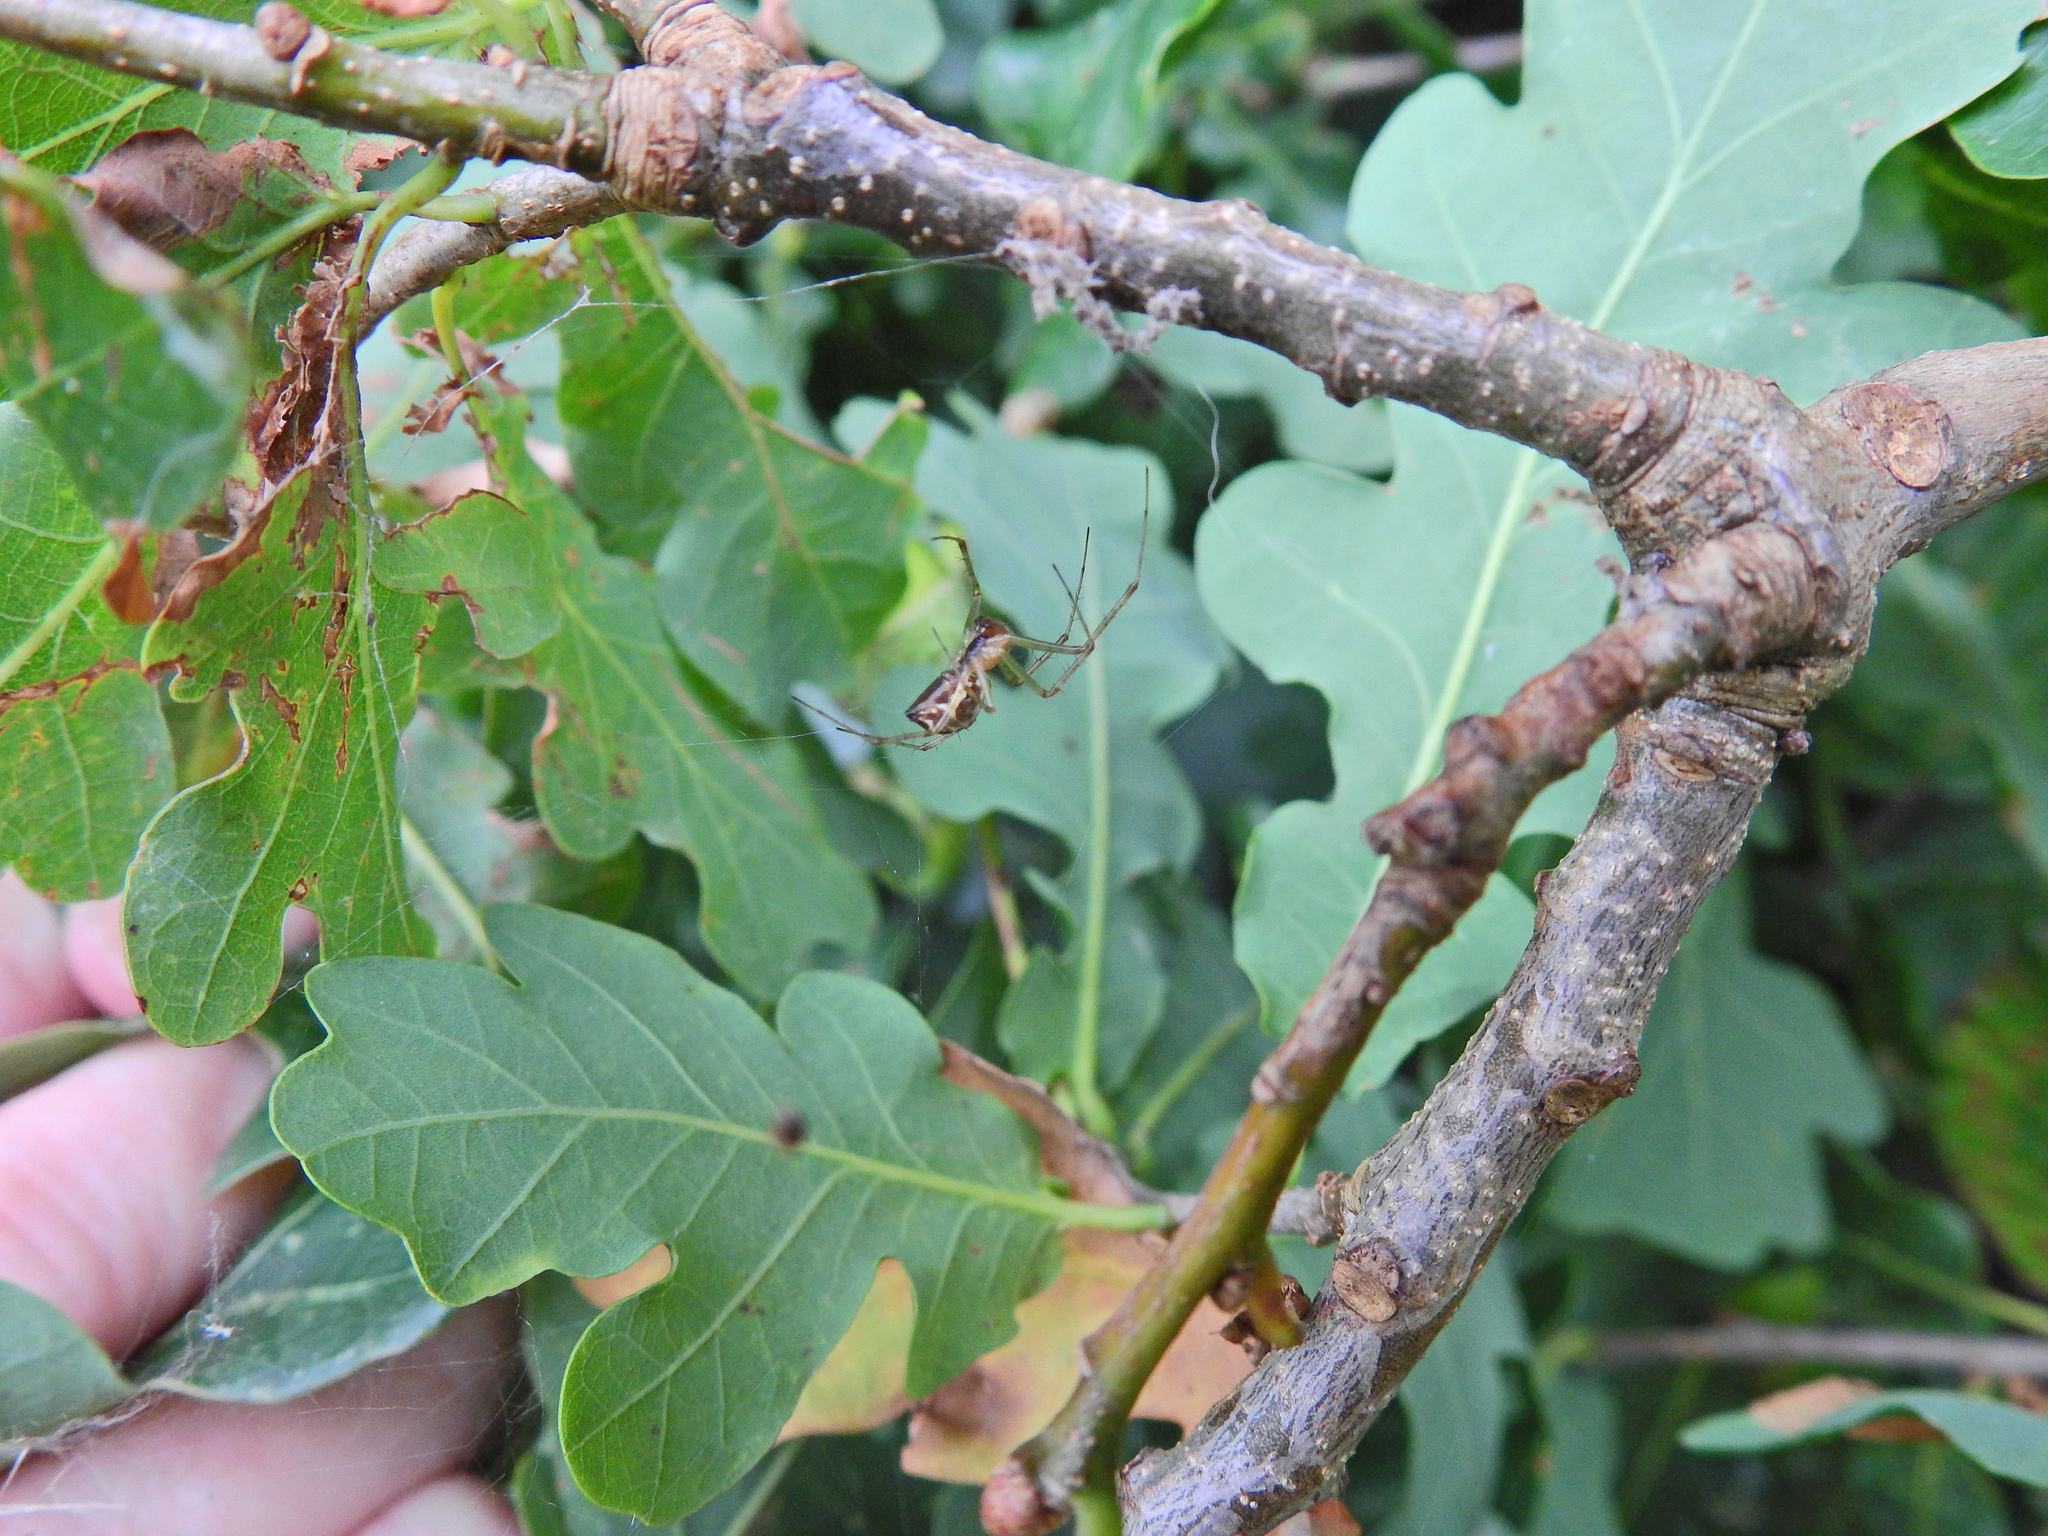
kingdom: Animalia
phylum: Arthropoda
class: Arachnida
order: Araneae
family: Linyphiidae
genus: Linyphia
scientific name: Linyphia triangularis
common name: Money spider
